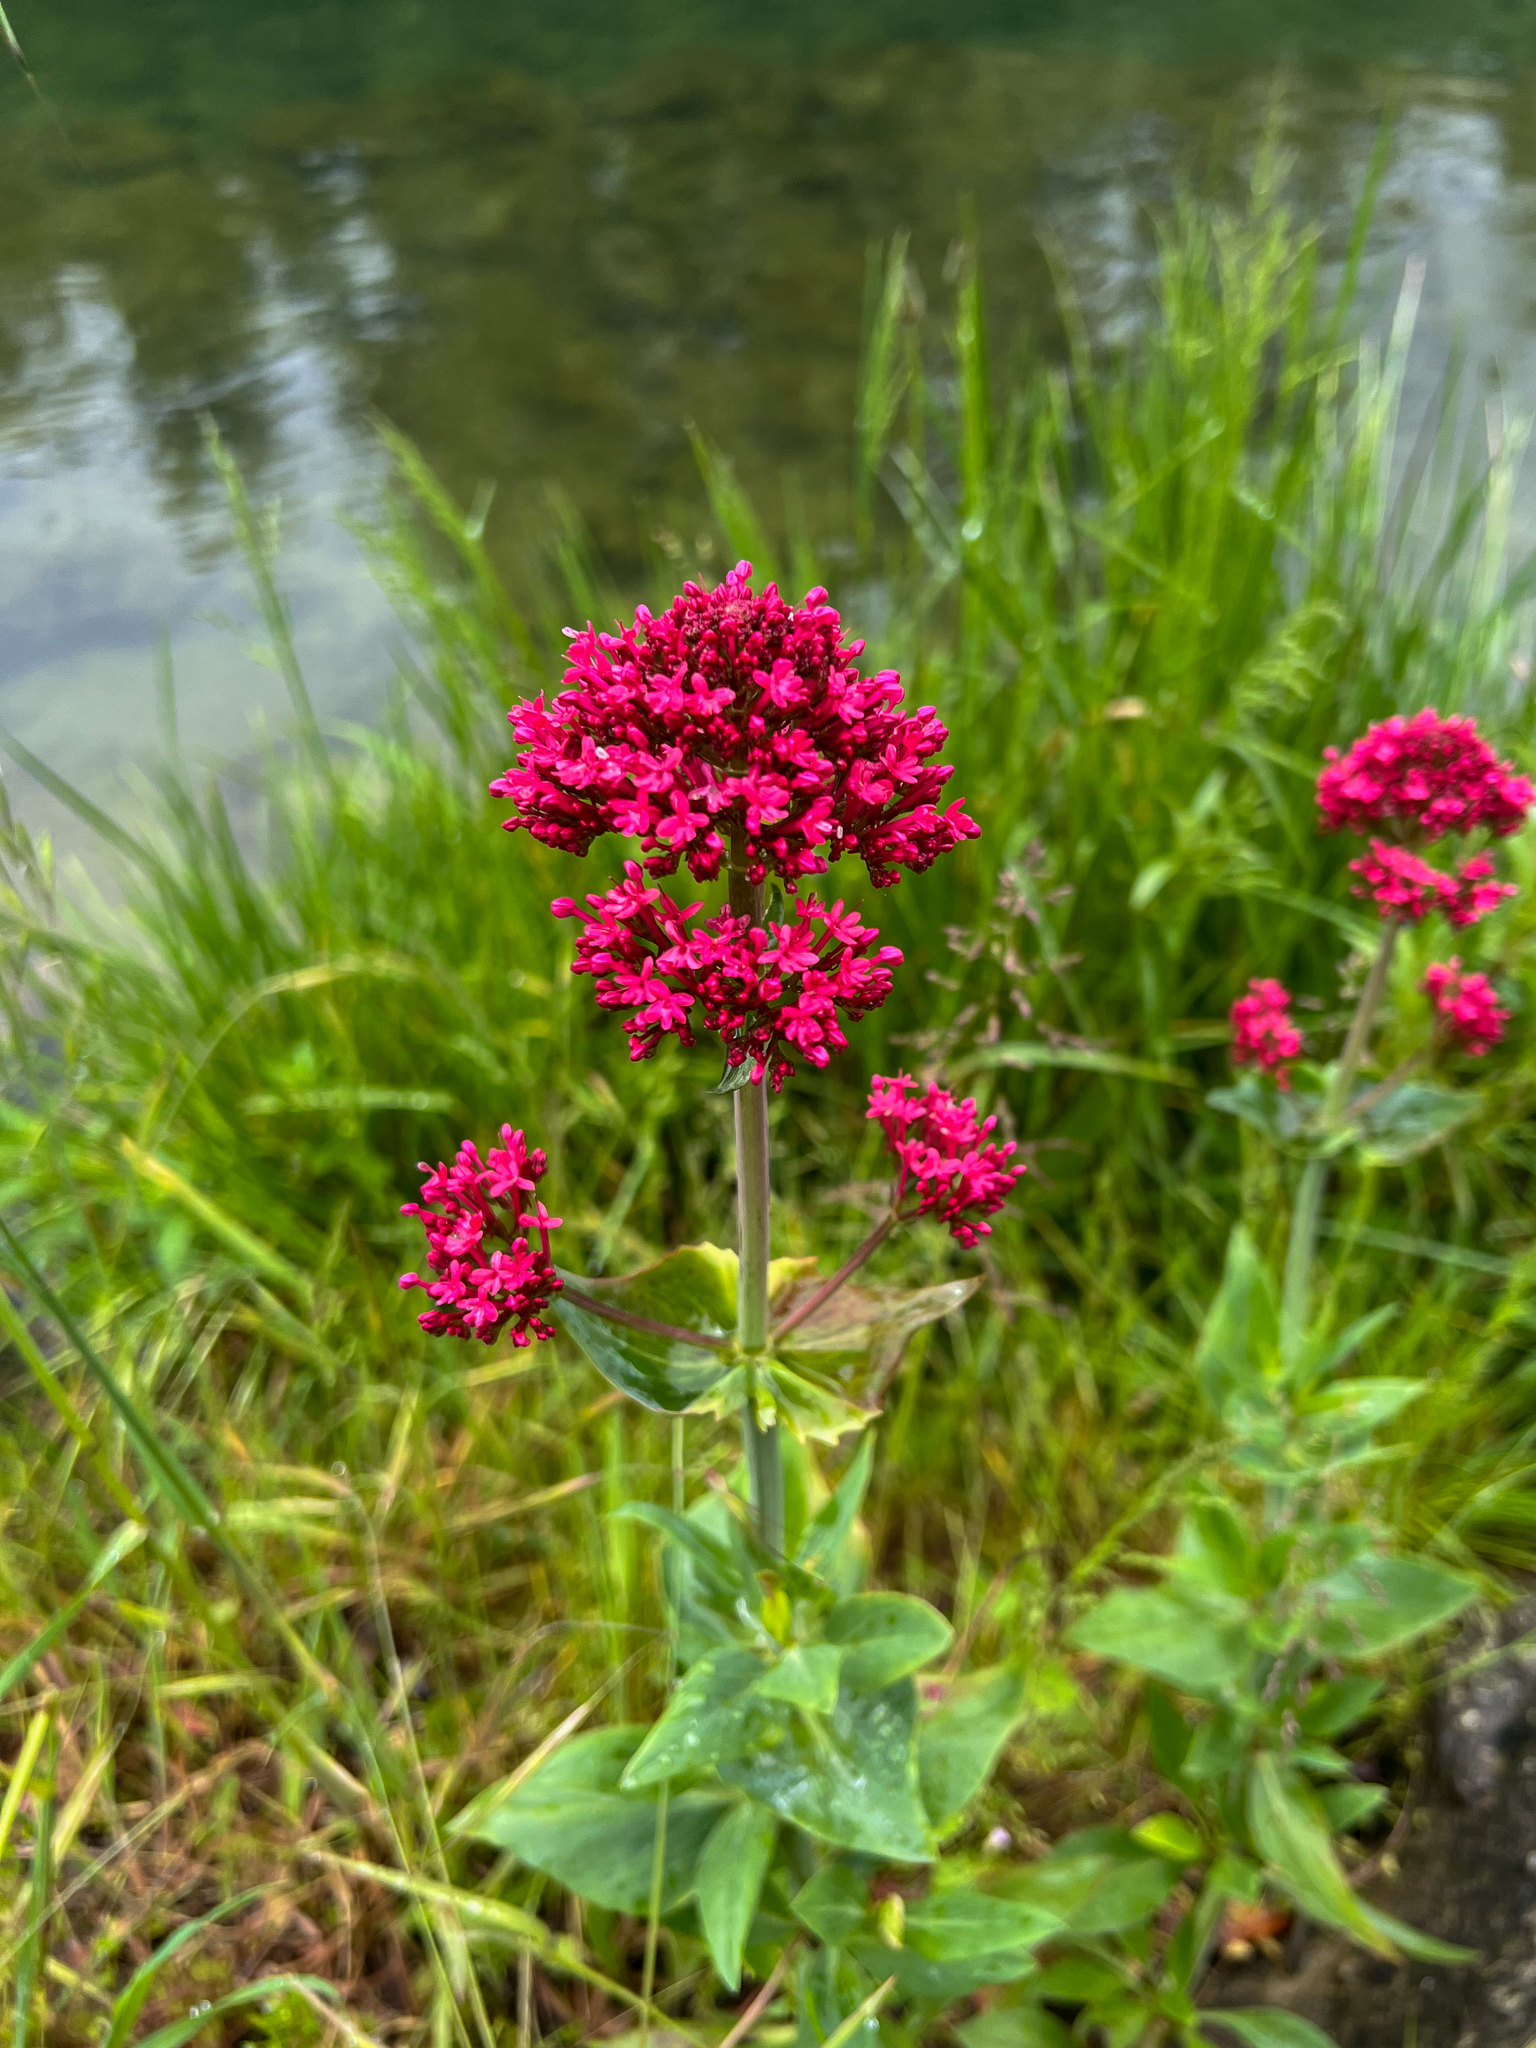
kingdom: Plantae
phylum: Tracheophyta
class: Magnoliopsida
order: Dipsacales
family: Caprifoliaceae
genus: Centranthus
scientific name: Centranthus ruber
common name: Red valerian
